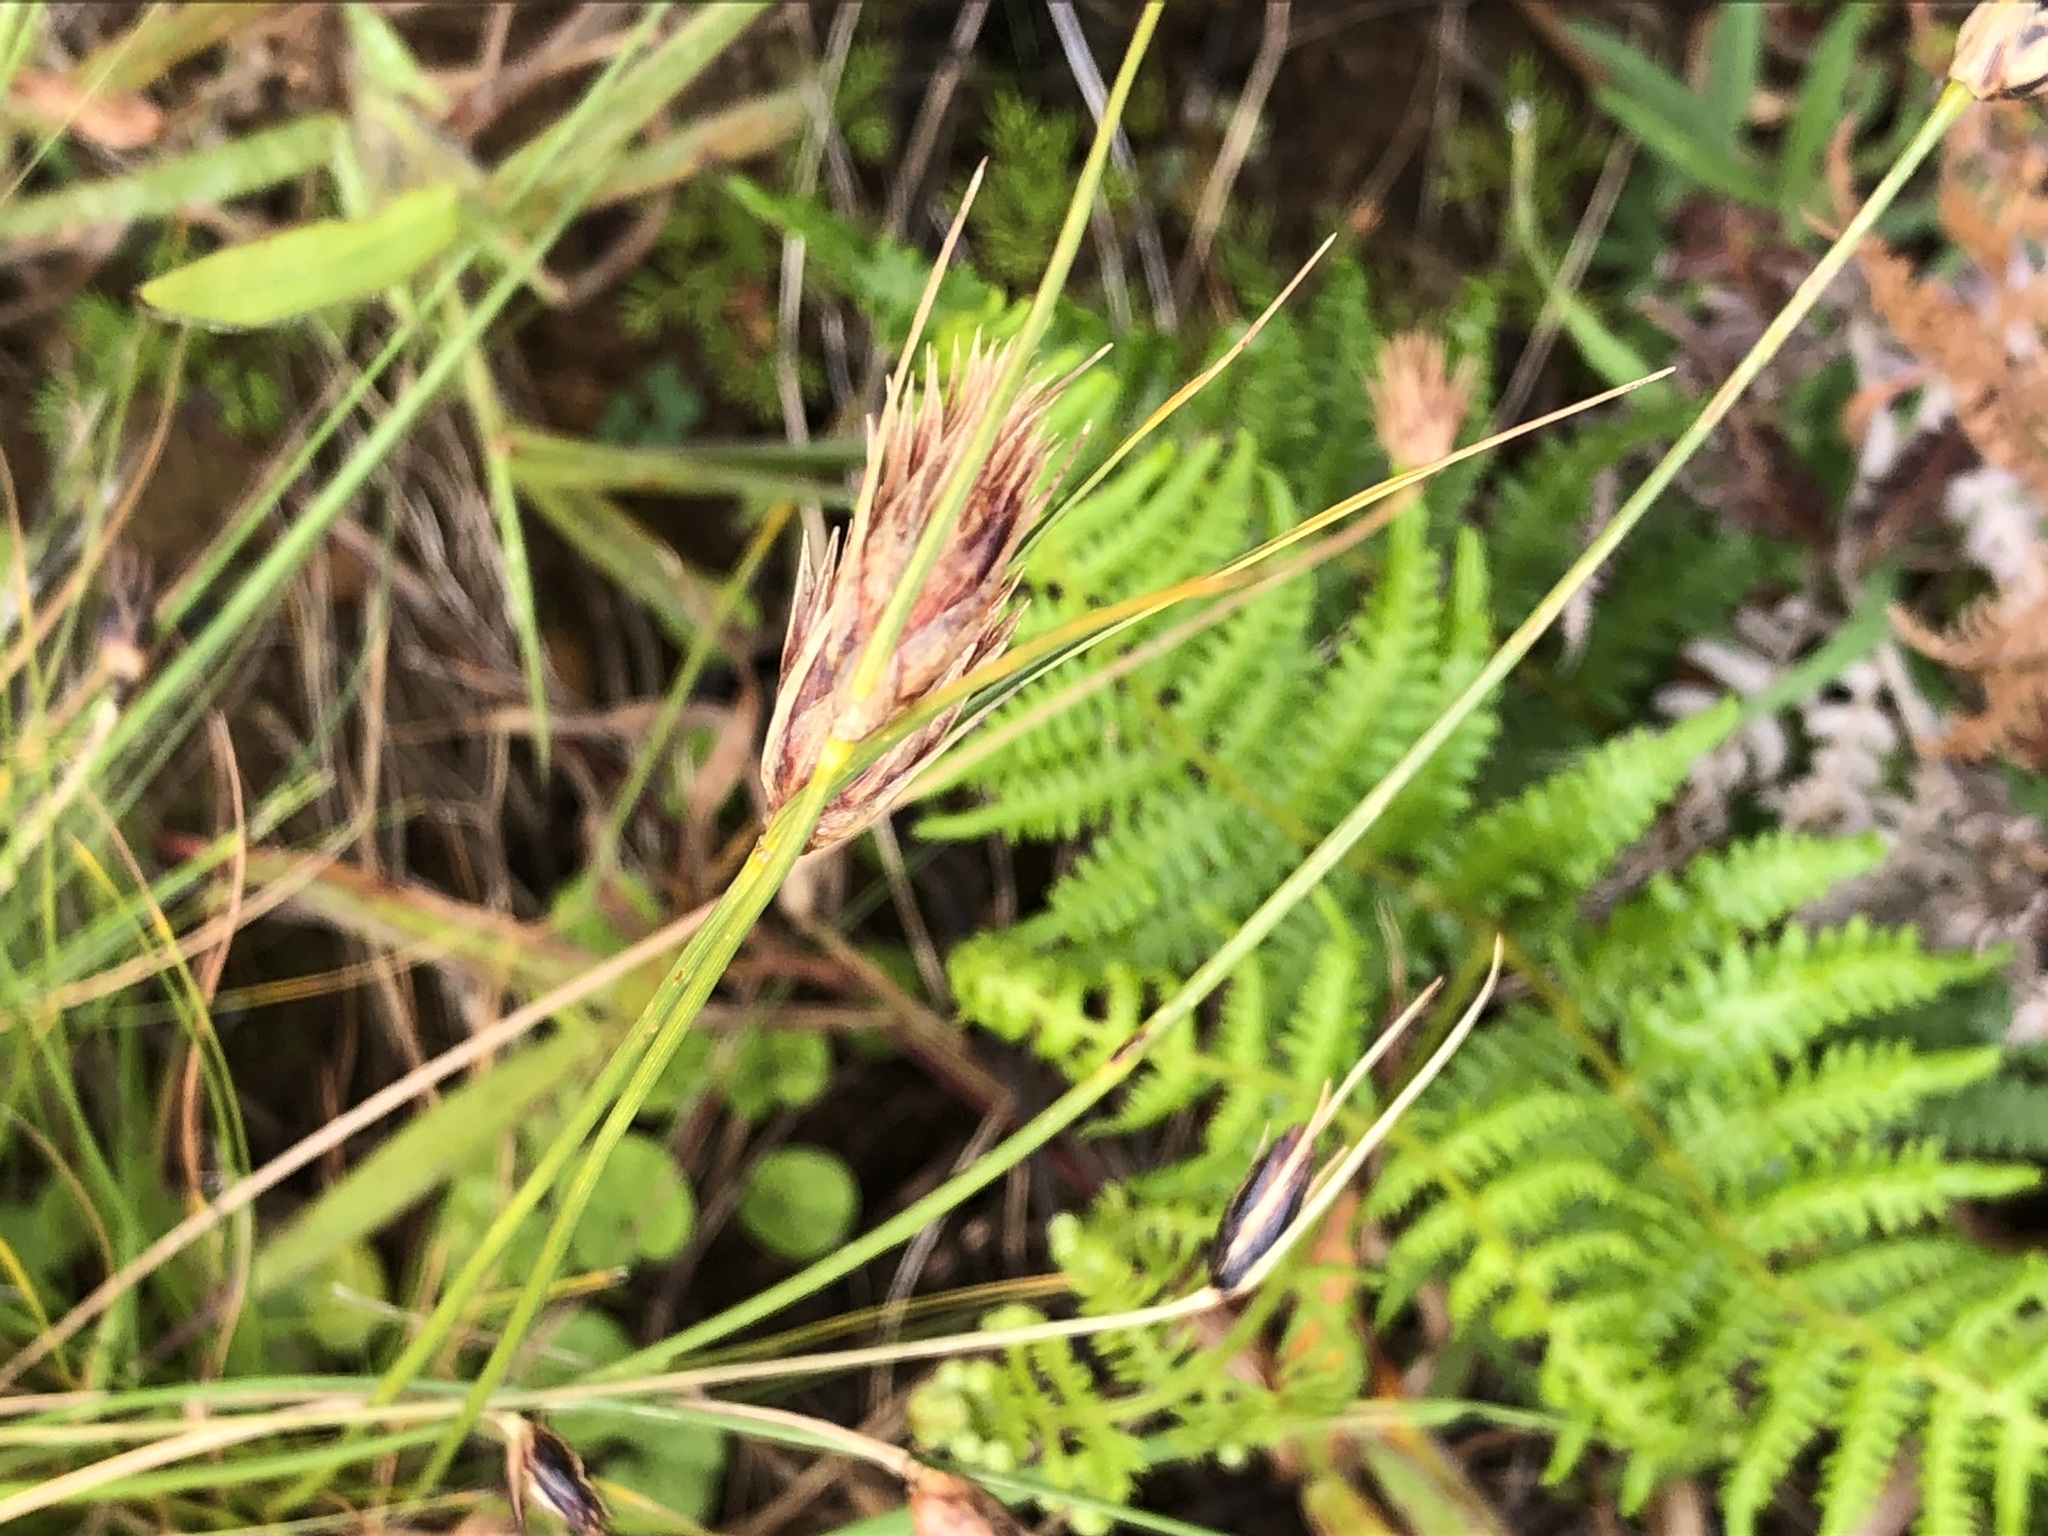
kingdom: Plantae
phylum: Tracheophyta
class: Liliopsida
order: Poales
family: Cyperaceae
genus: Ficinia
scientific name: Ficinia nigrescens
